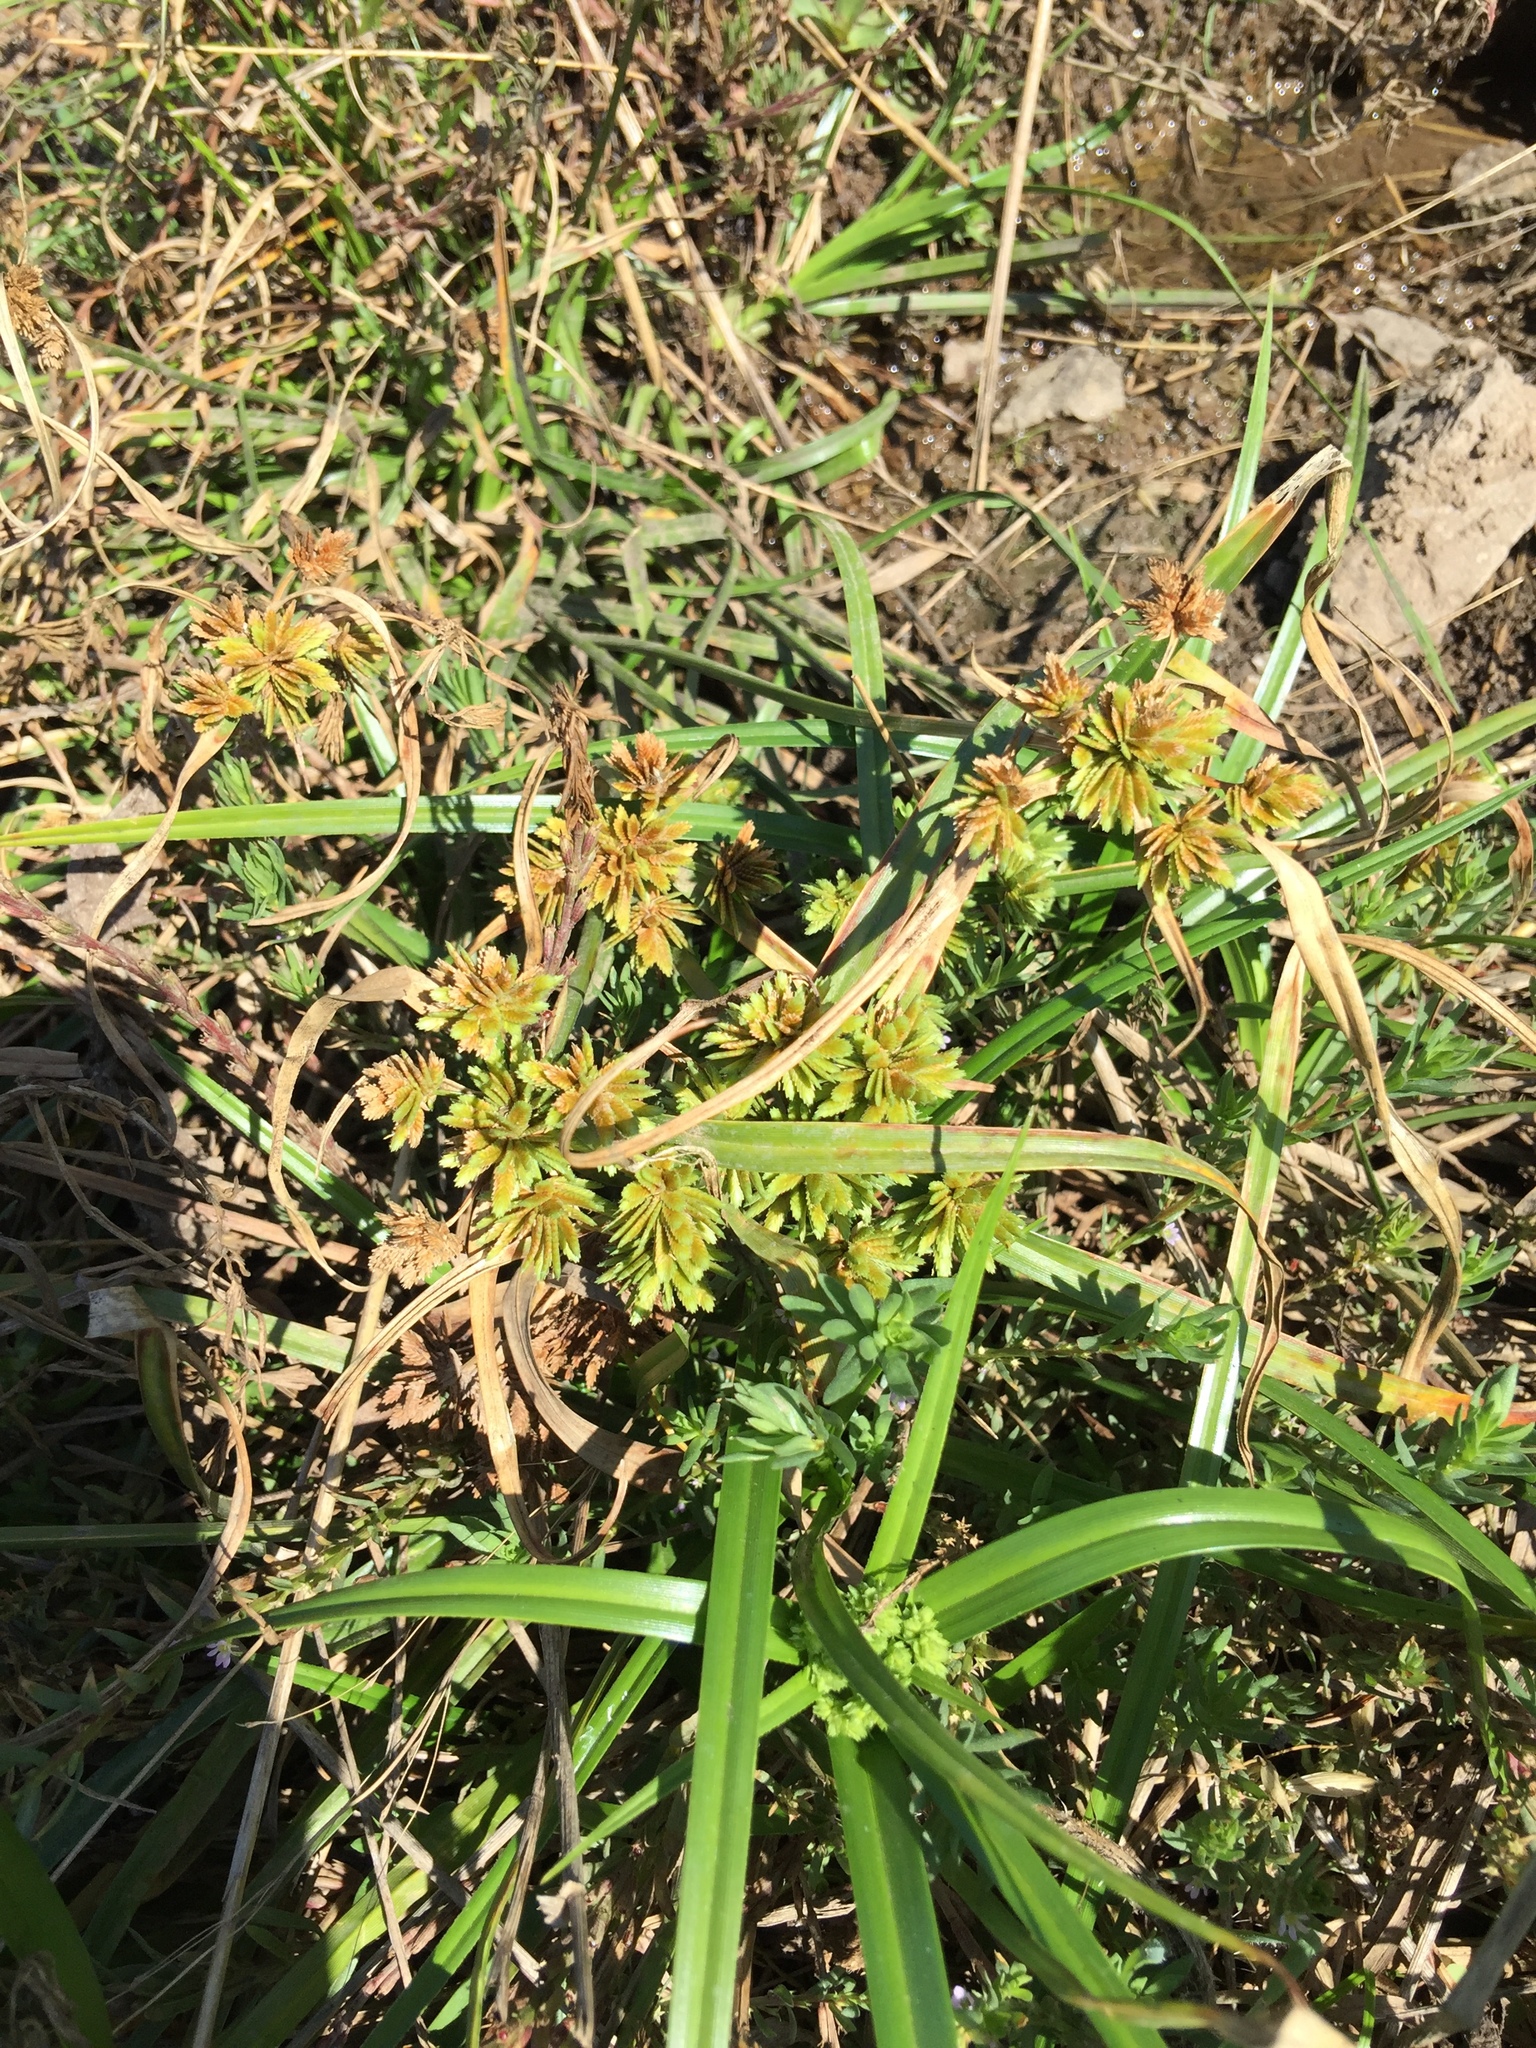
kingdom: Plantae
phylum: Tracheophyta
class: Liliopsida
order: Poales
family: Cyperaceae
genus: Cyperus
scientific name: Cyperus eragrostis
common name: Tall flatsedge
